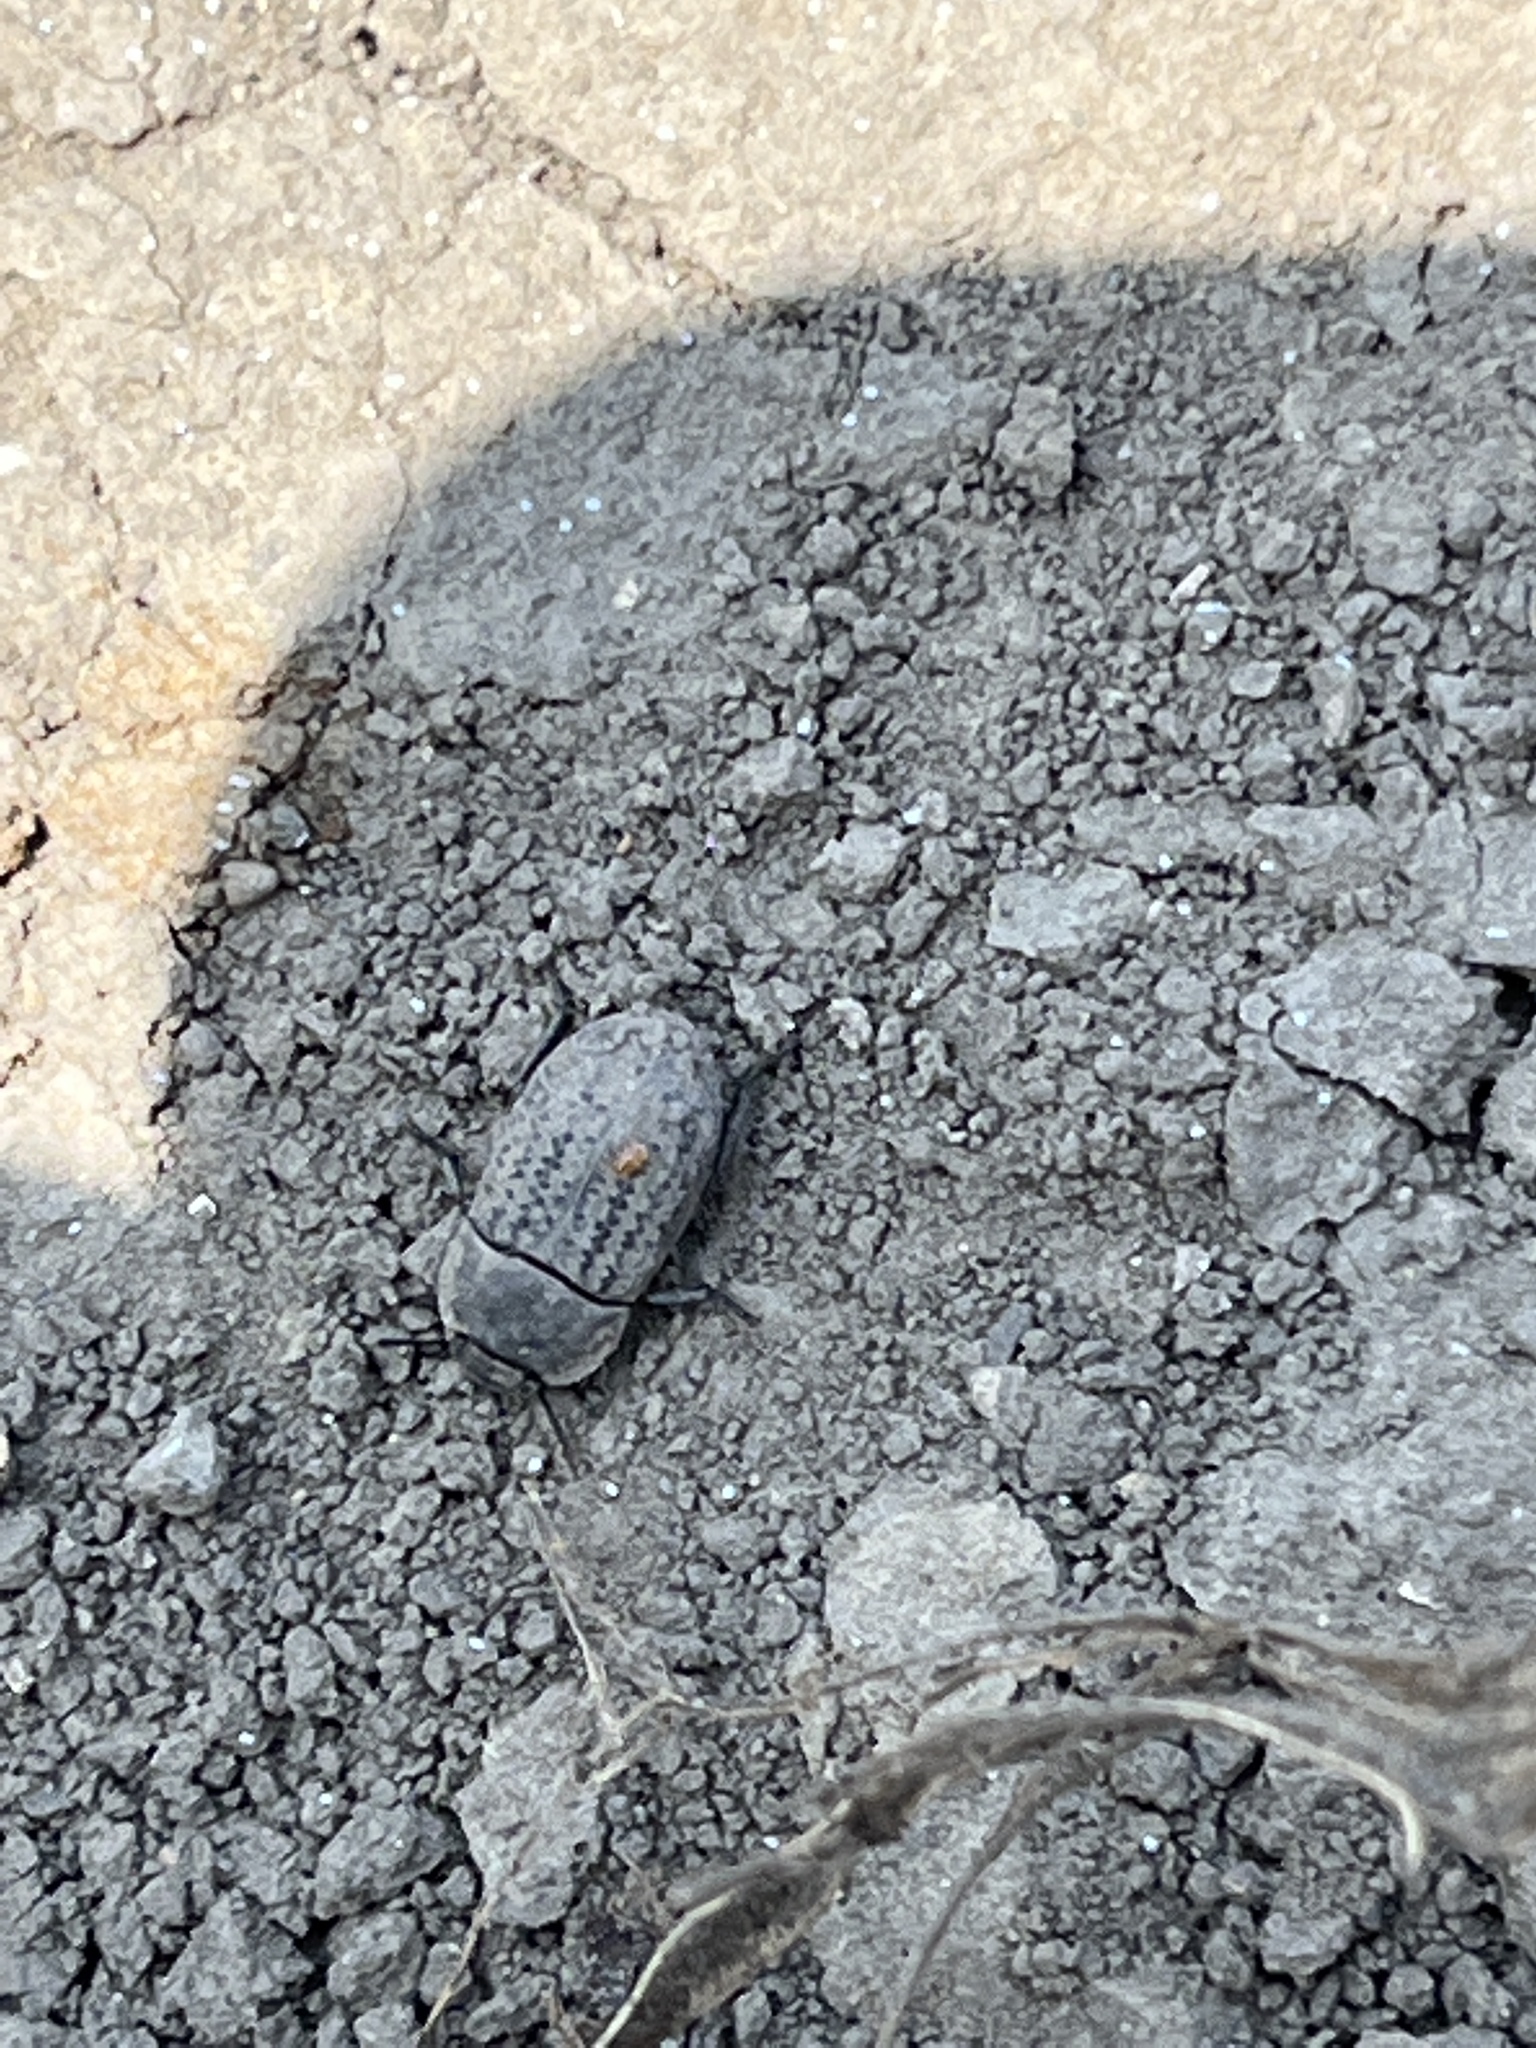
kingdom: Animalia
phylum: Arthropoda
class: Insecta
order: Coleoptera
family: Tenebrionidae
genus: Opatrum
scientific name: Opatrum sabulosum
